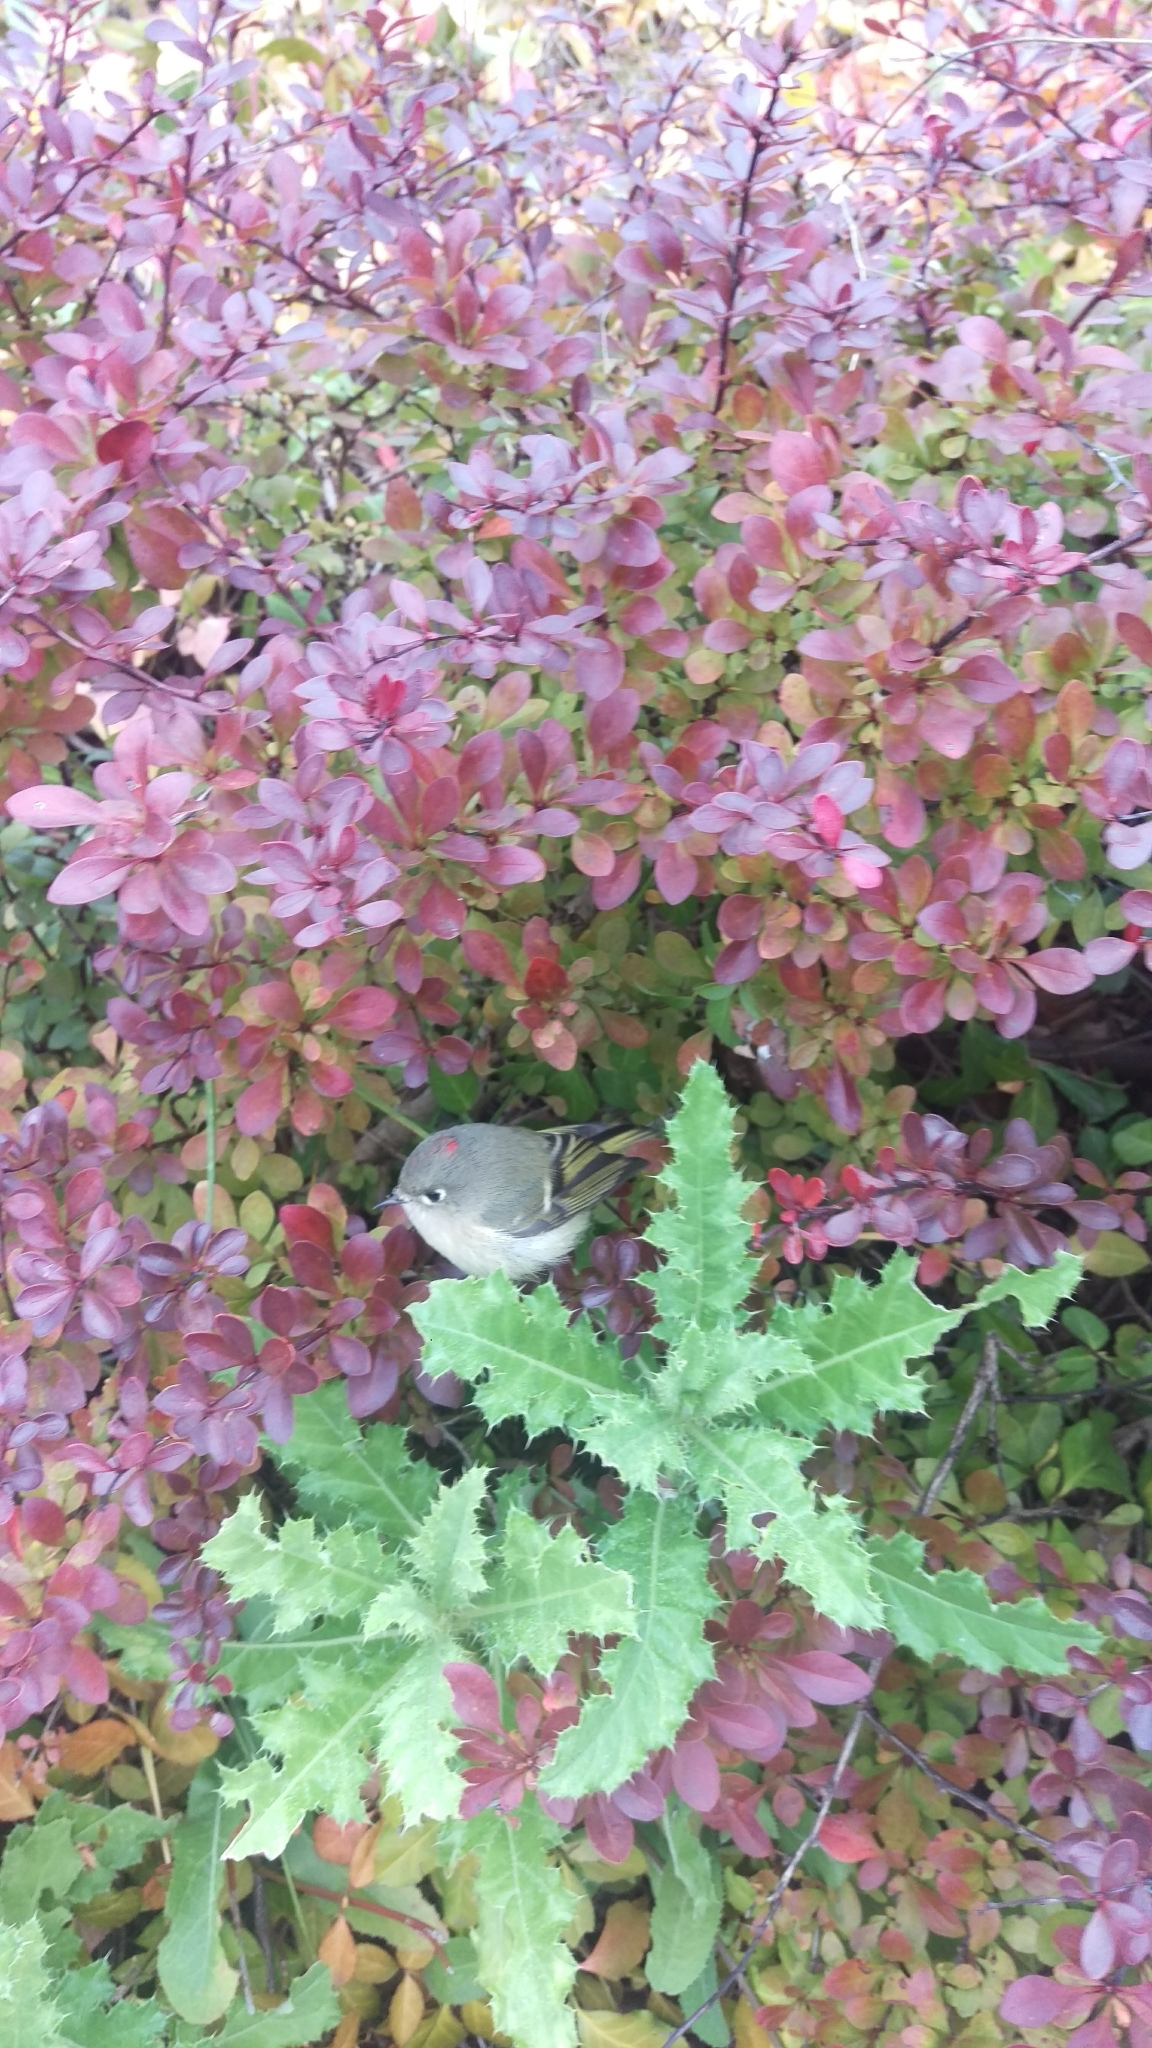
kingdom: Animalia
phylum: Chordata
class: Aves
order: Passeriformes
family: Regulidae
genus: Regulus
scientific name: Regulus calendula
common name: Ruby-crowned kinglet
